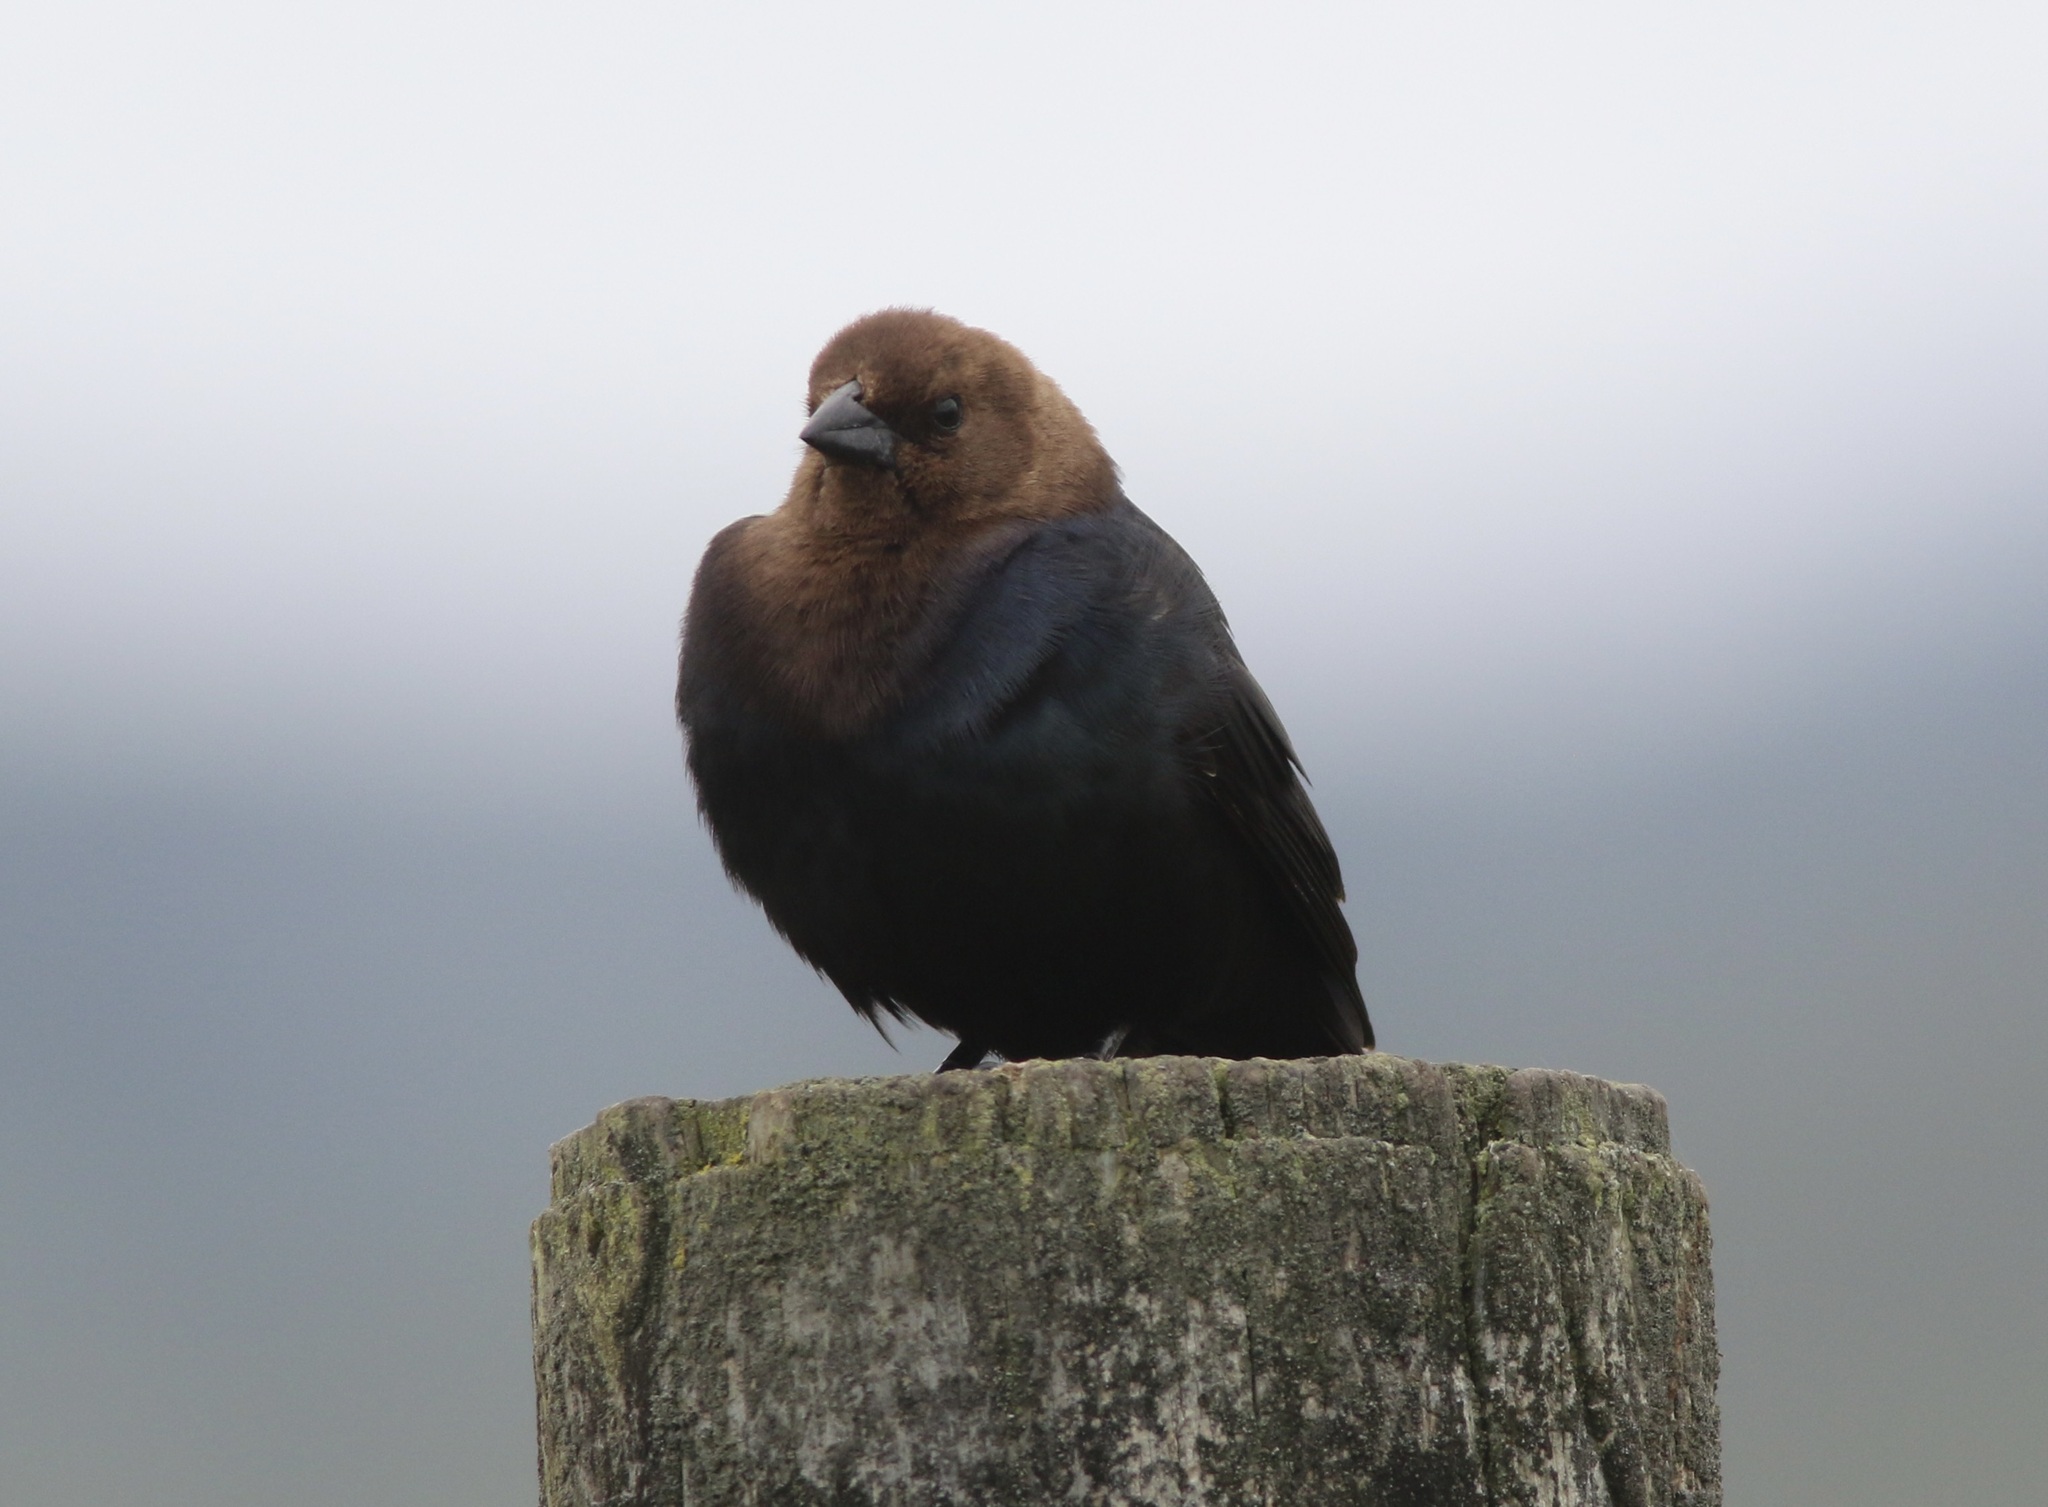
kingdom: Animalia
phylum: Chordata
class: Aves
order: Passeriformes
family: Icteridae
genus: Molothrus
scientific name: Molothrus ater
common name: Brown-headed cowbird
